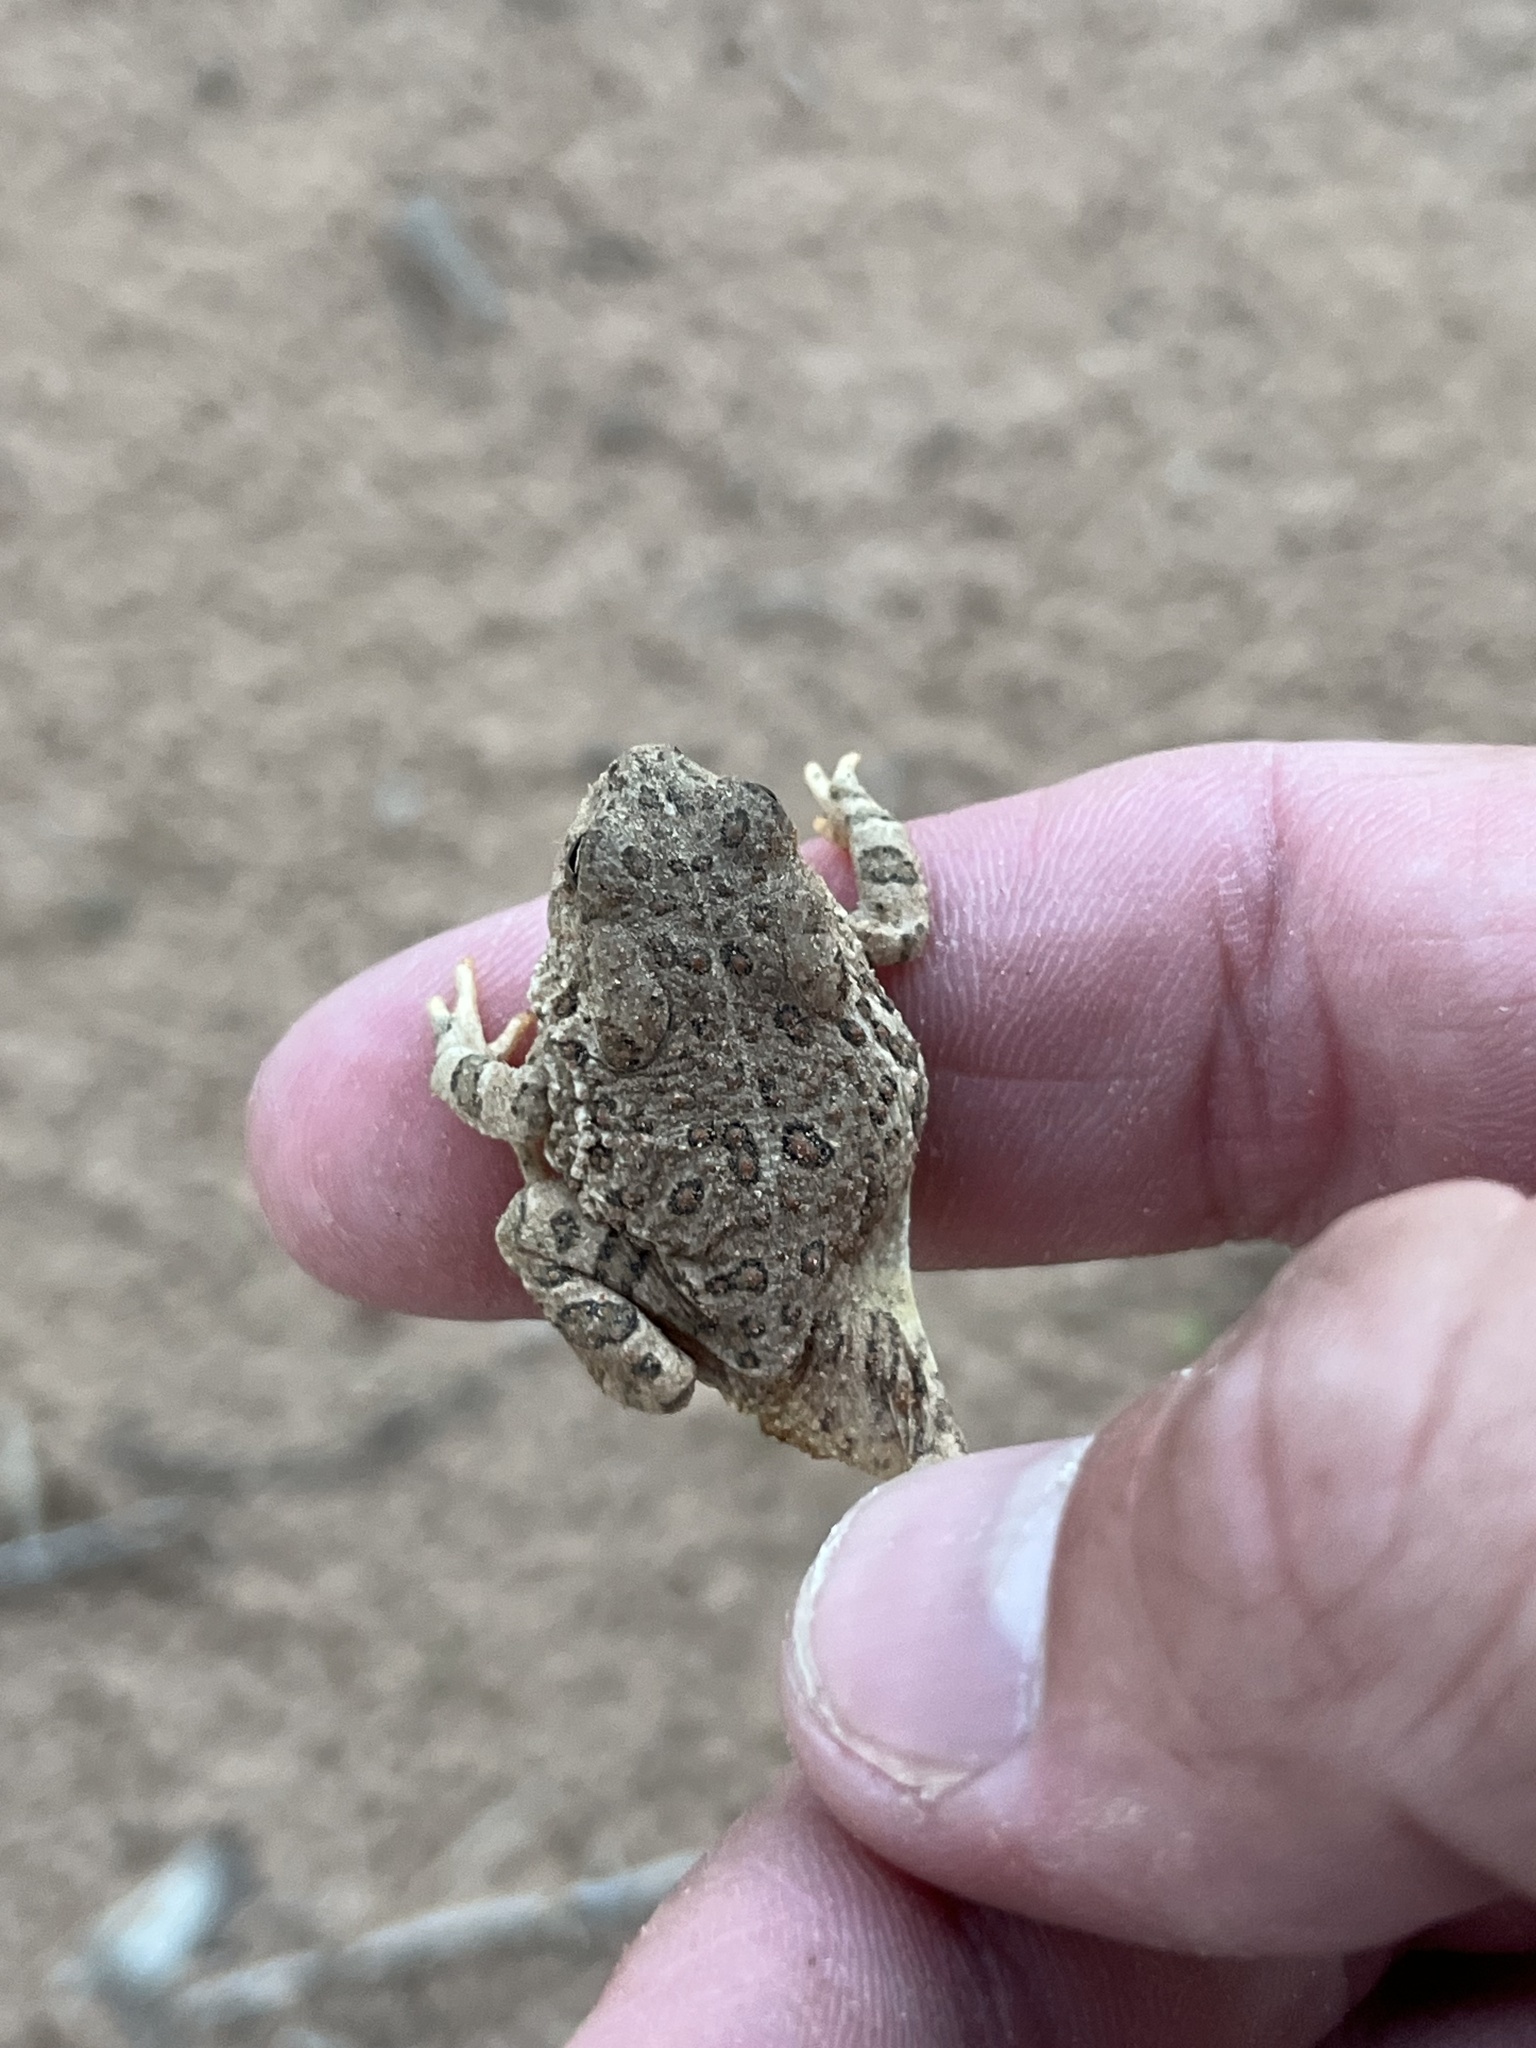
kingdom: Animalia
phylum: Chordata
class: Amphibia
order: Anura
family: Bufonidae
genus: Anaxyrus
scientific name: Anaxyrus woodhousii
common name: Woodhouse's toad
